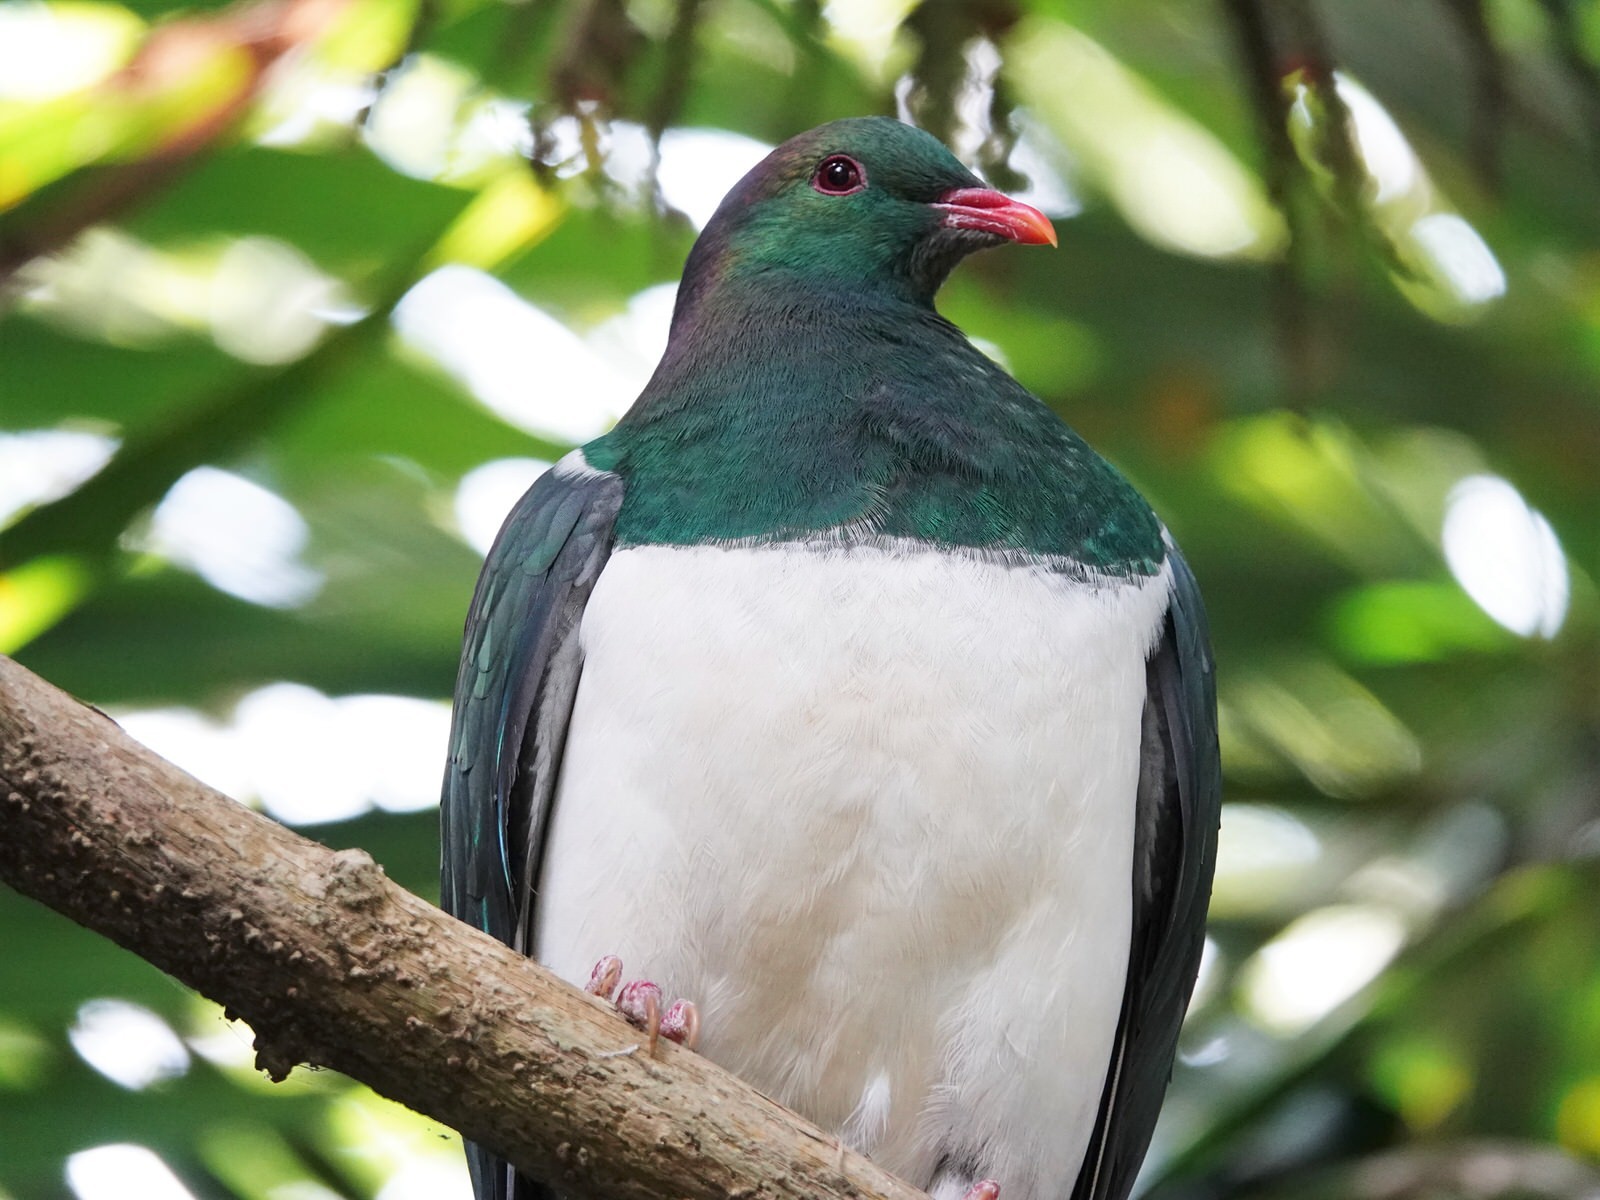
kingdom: Animalia
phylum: Chordata
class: Aves
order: Columbiformes
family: Columbidae
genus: Hemiphaga
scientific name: Hemiphaga novaeseelandiae
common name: New zealand pigeon
